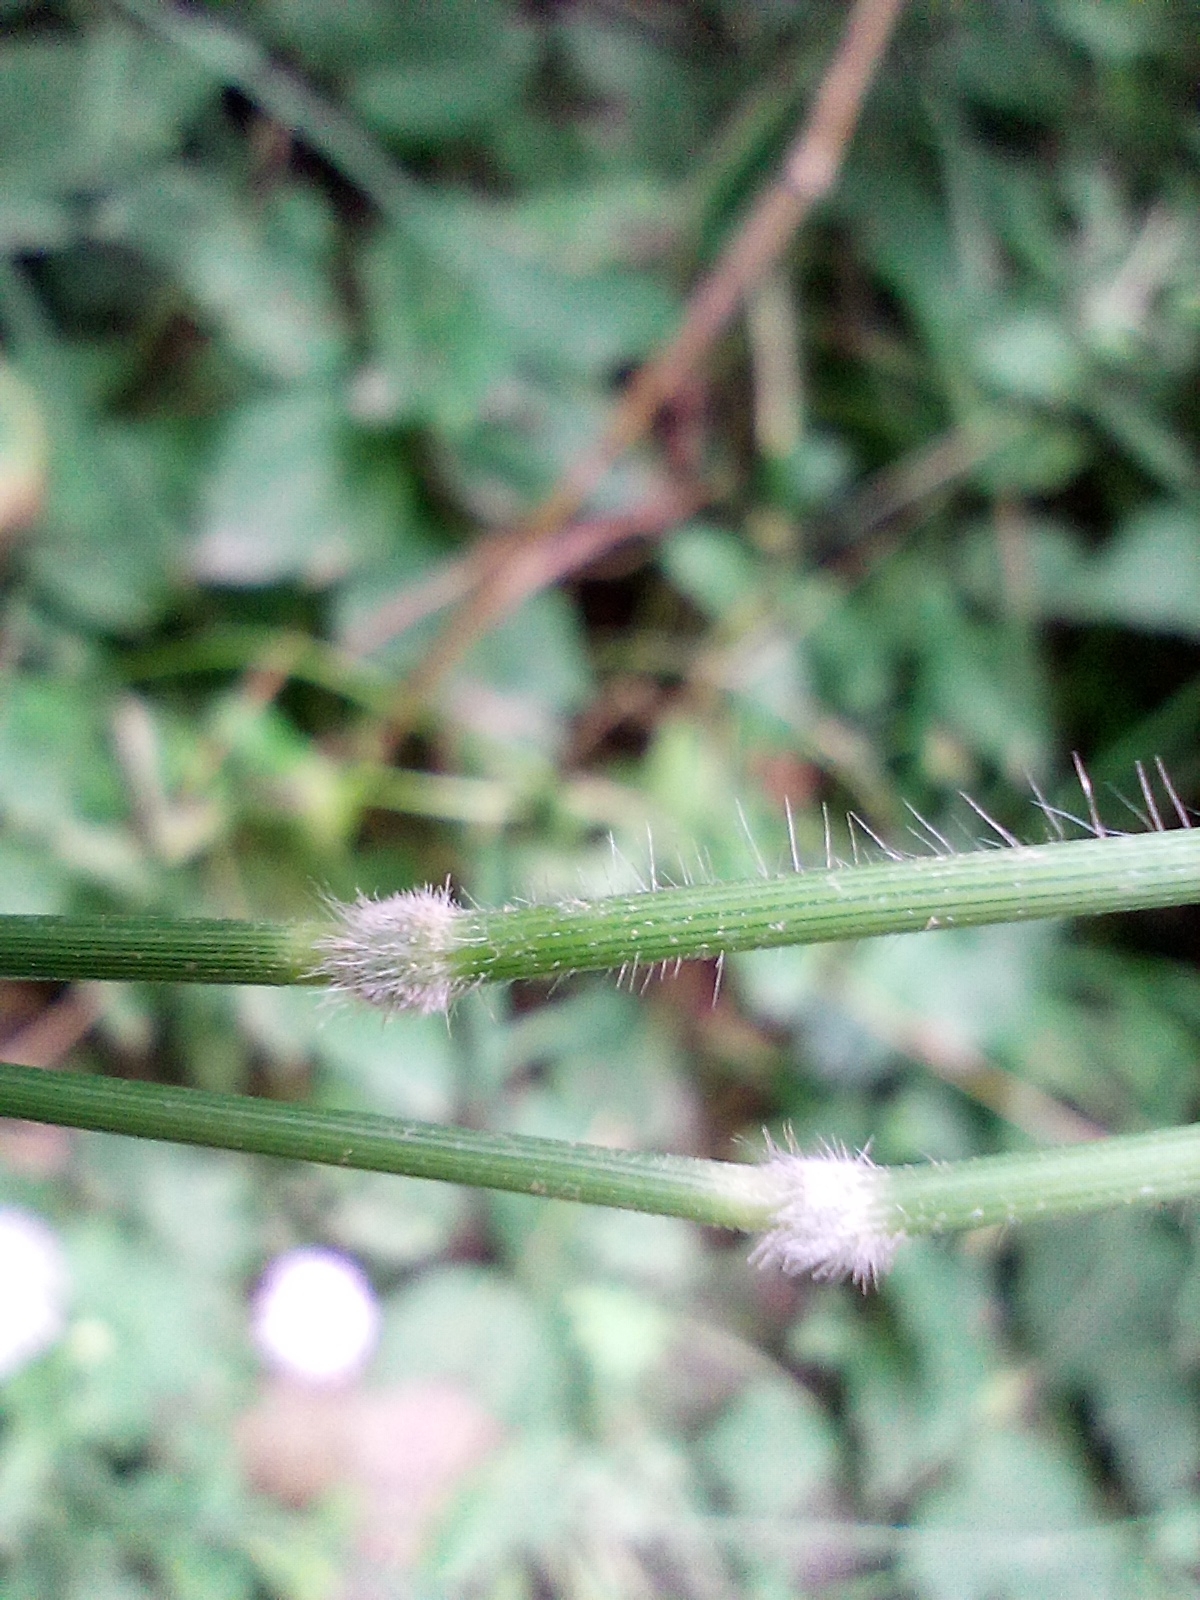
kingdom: Plantae
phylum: Tracheophyta
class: Liliopsida
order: Poales
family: Poaceae
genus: Brachypodium
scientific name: Brachypodium sylvaticum
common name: False-brome
